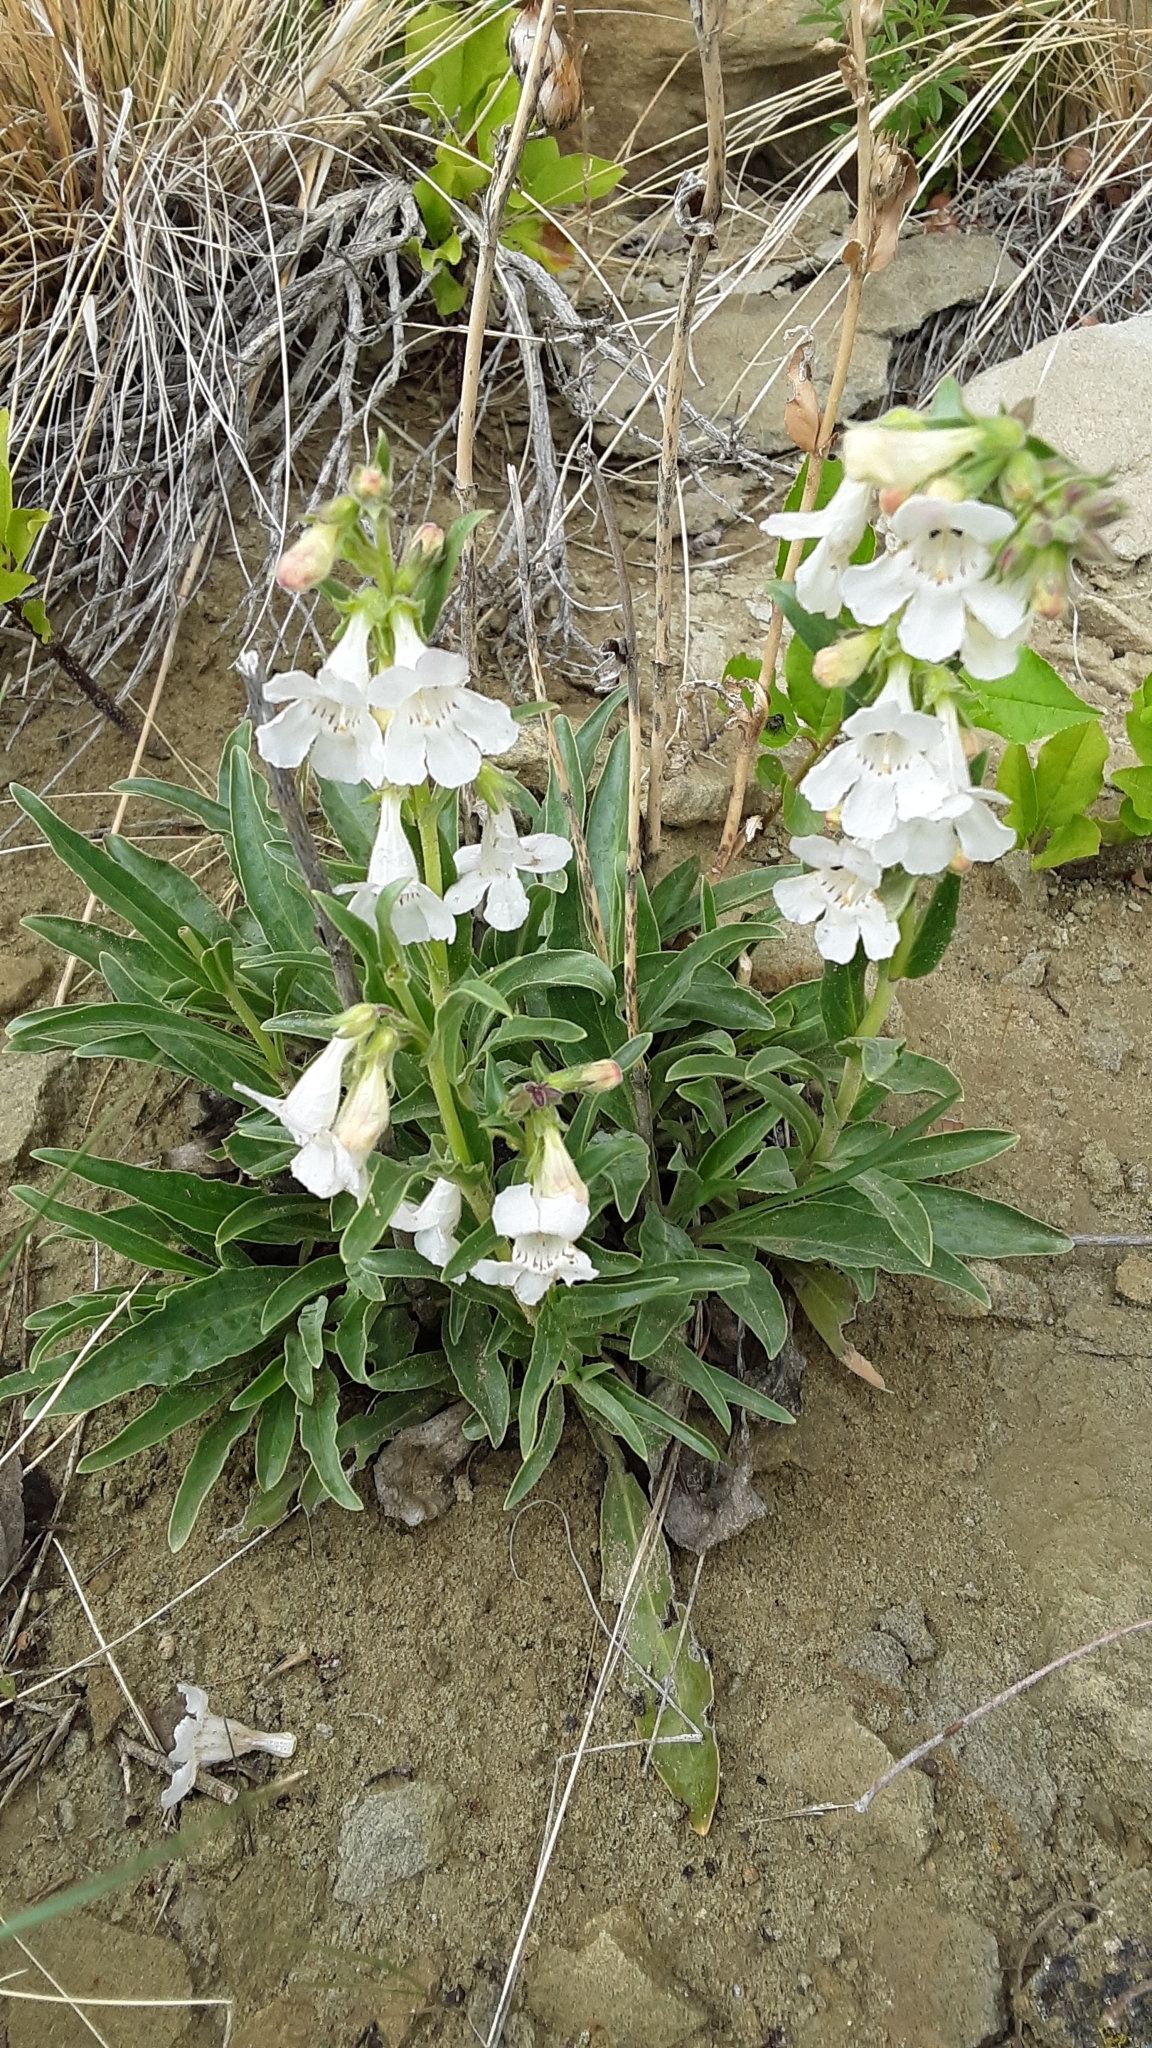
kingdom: Plantae
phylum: Tracheophyta
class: Magnoliopsida
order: Lamiales
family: Plantaginaceae
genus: Penstemon
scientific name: Penstemon albidus
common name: White beardtongue
